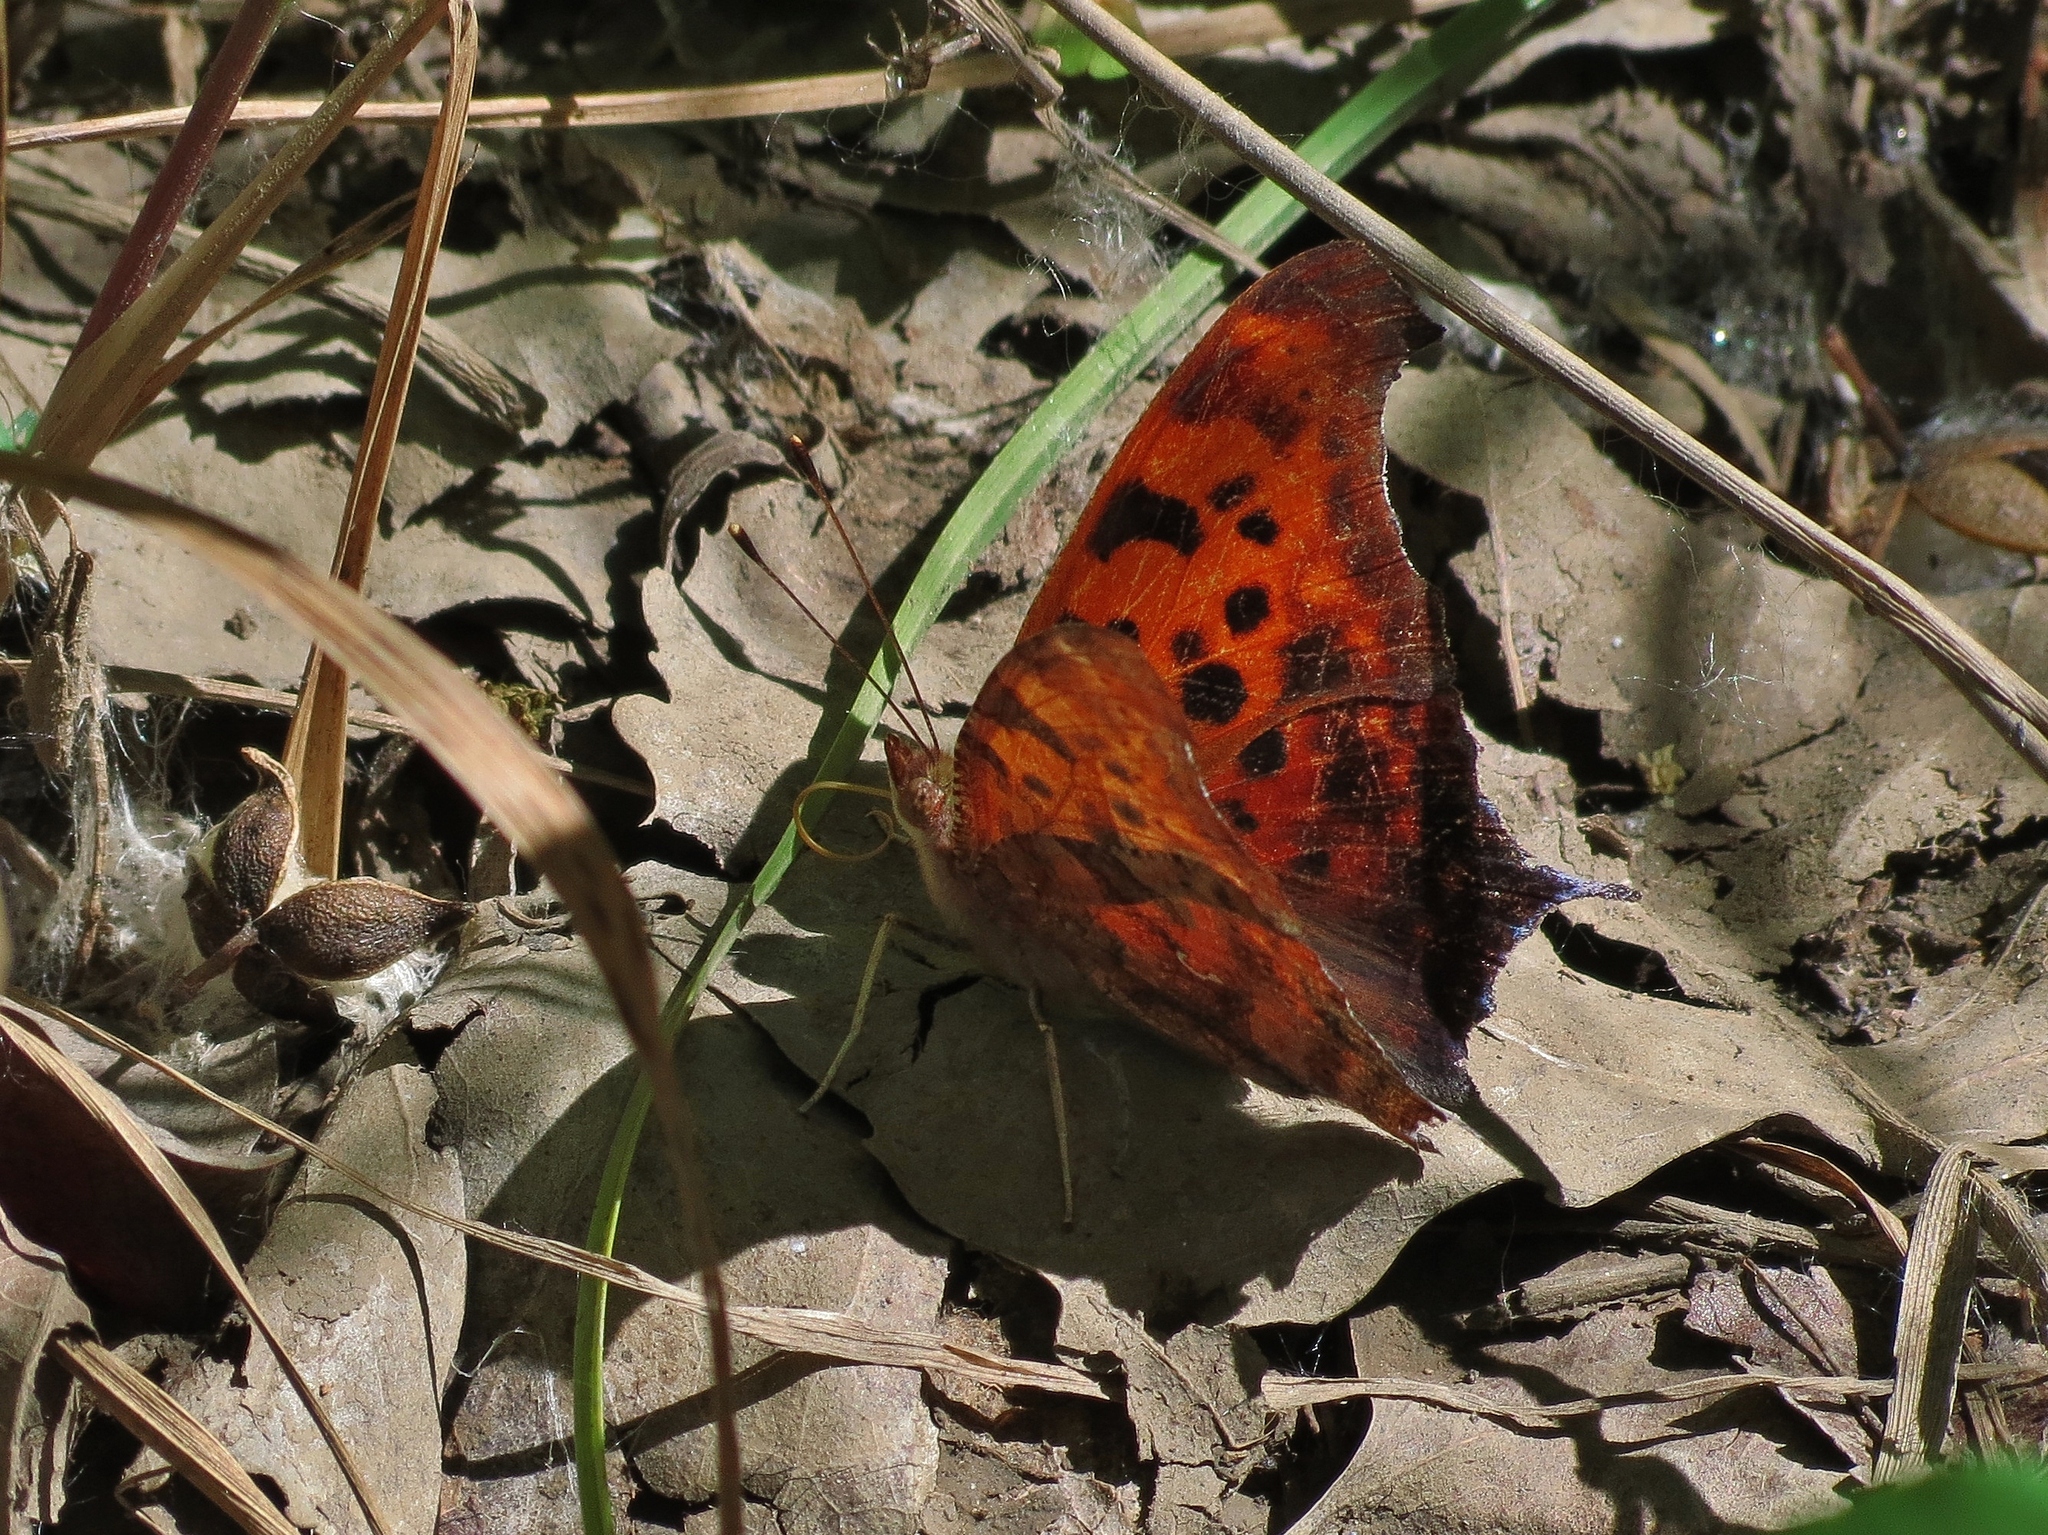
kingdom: Animalia
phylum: Arthropoda
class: Insecta
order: Lepidoptera
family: Nymphalidae
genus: Polygonia
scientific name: Polygonia interrogationis
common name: Question mark
